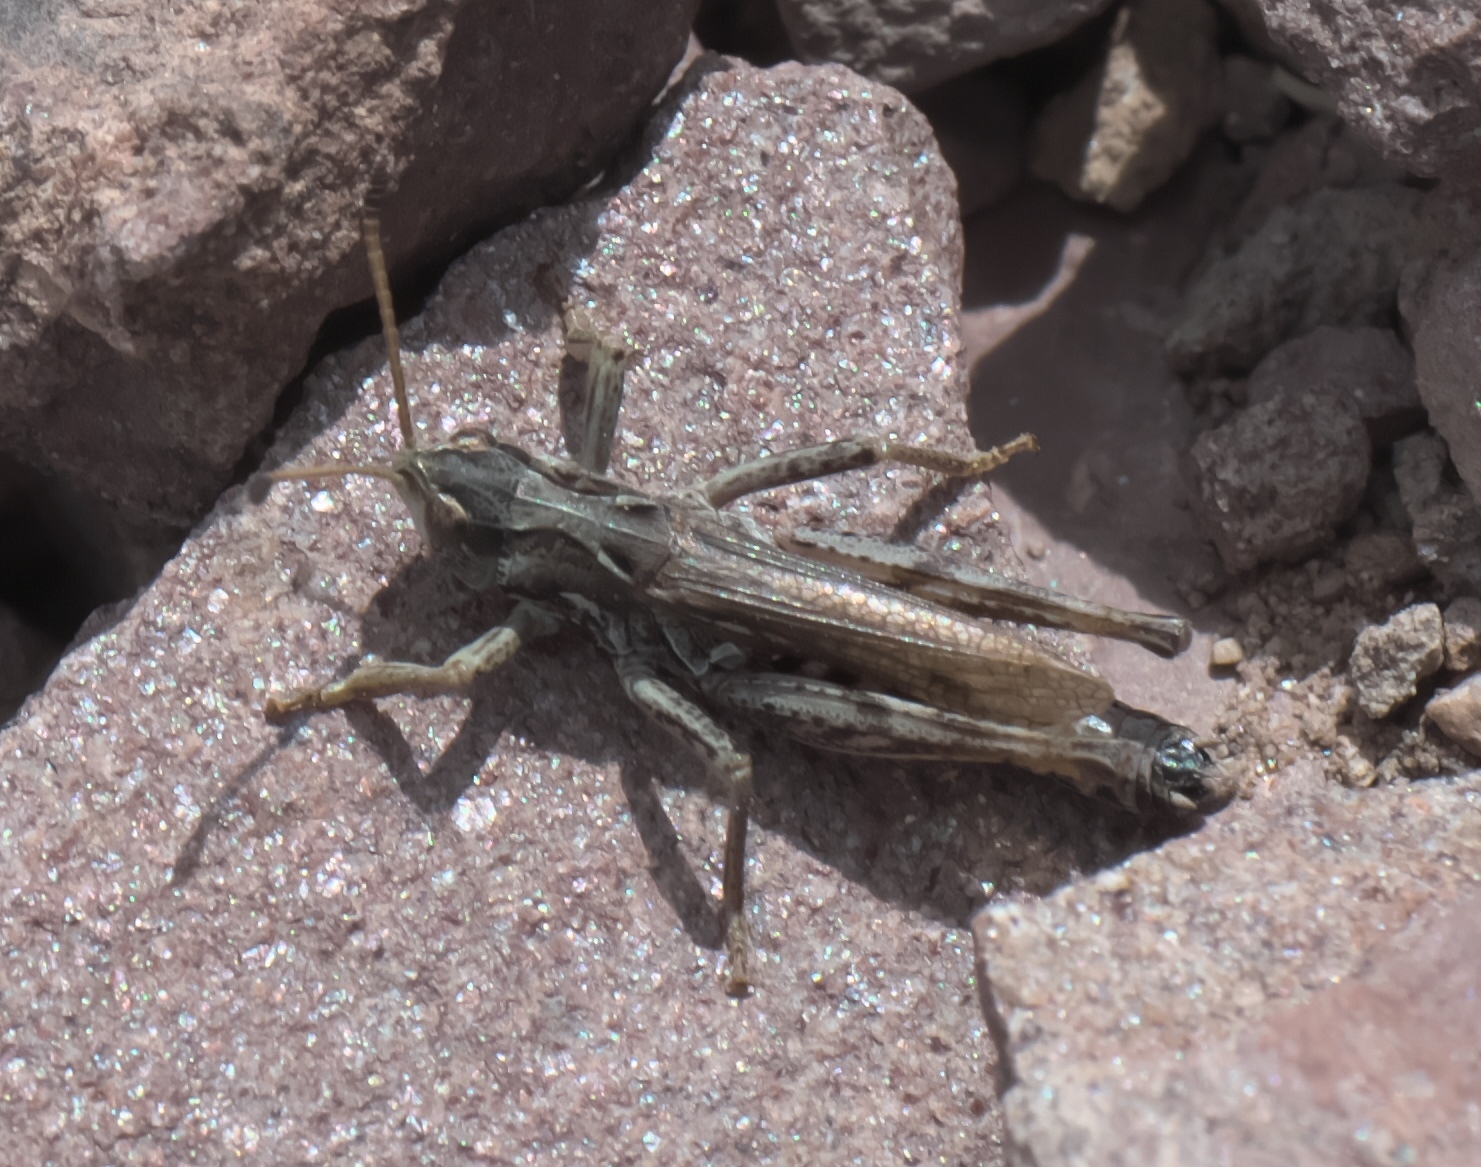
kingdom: Animalia
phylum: Arthropoda
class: Insecta
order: Orthoptera
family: Acrididae
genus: Aeropedellus
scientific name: Aeropedellus clavatus
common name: Clubhorned grasshopper
